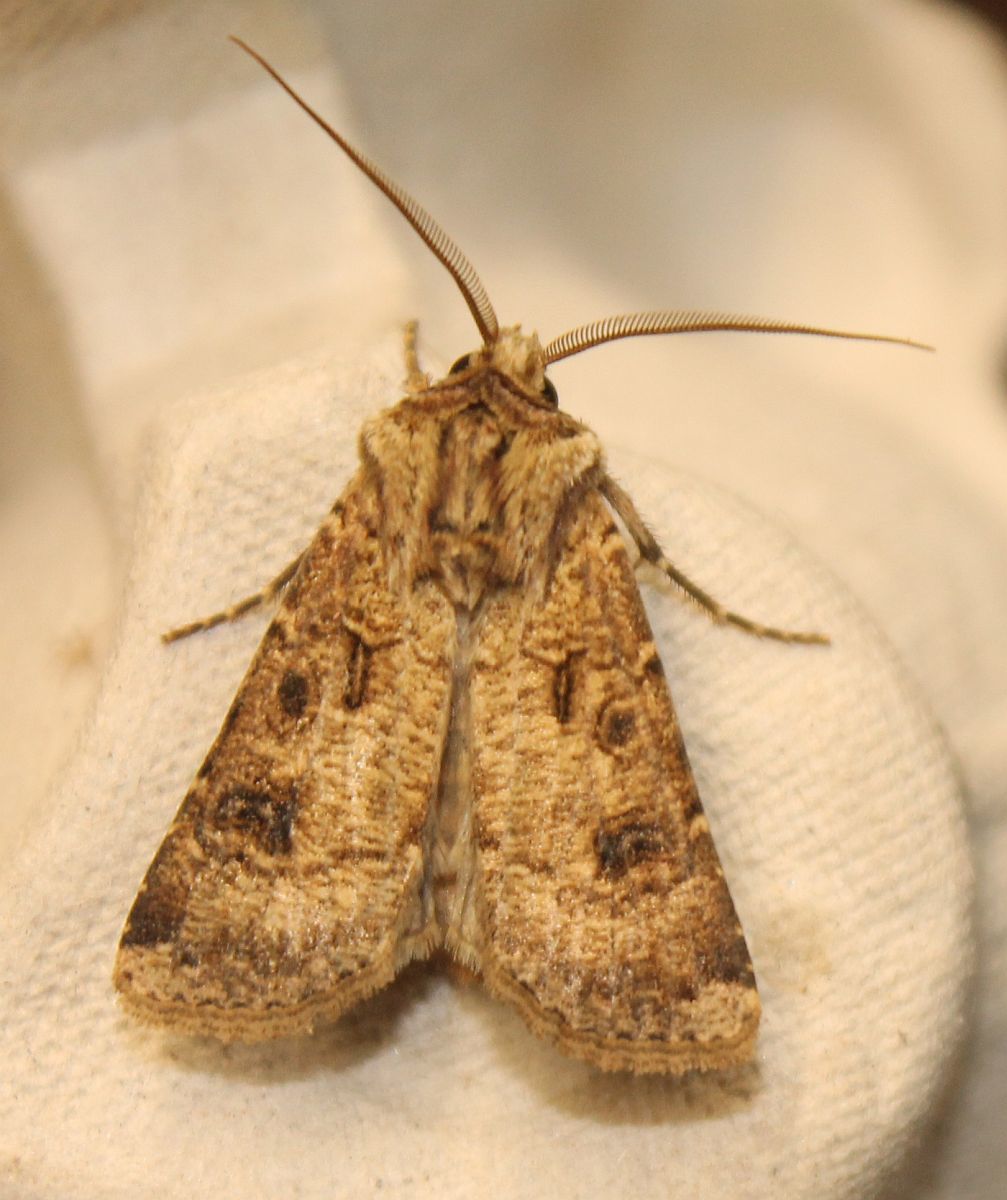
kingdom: Animalia
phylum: Arthropoda
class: Insecta
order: Lepidoptera
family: Noctuidae
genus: Agrotis
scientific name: Agrotis clavis
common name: Heart and club
